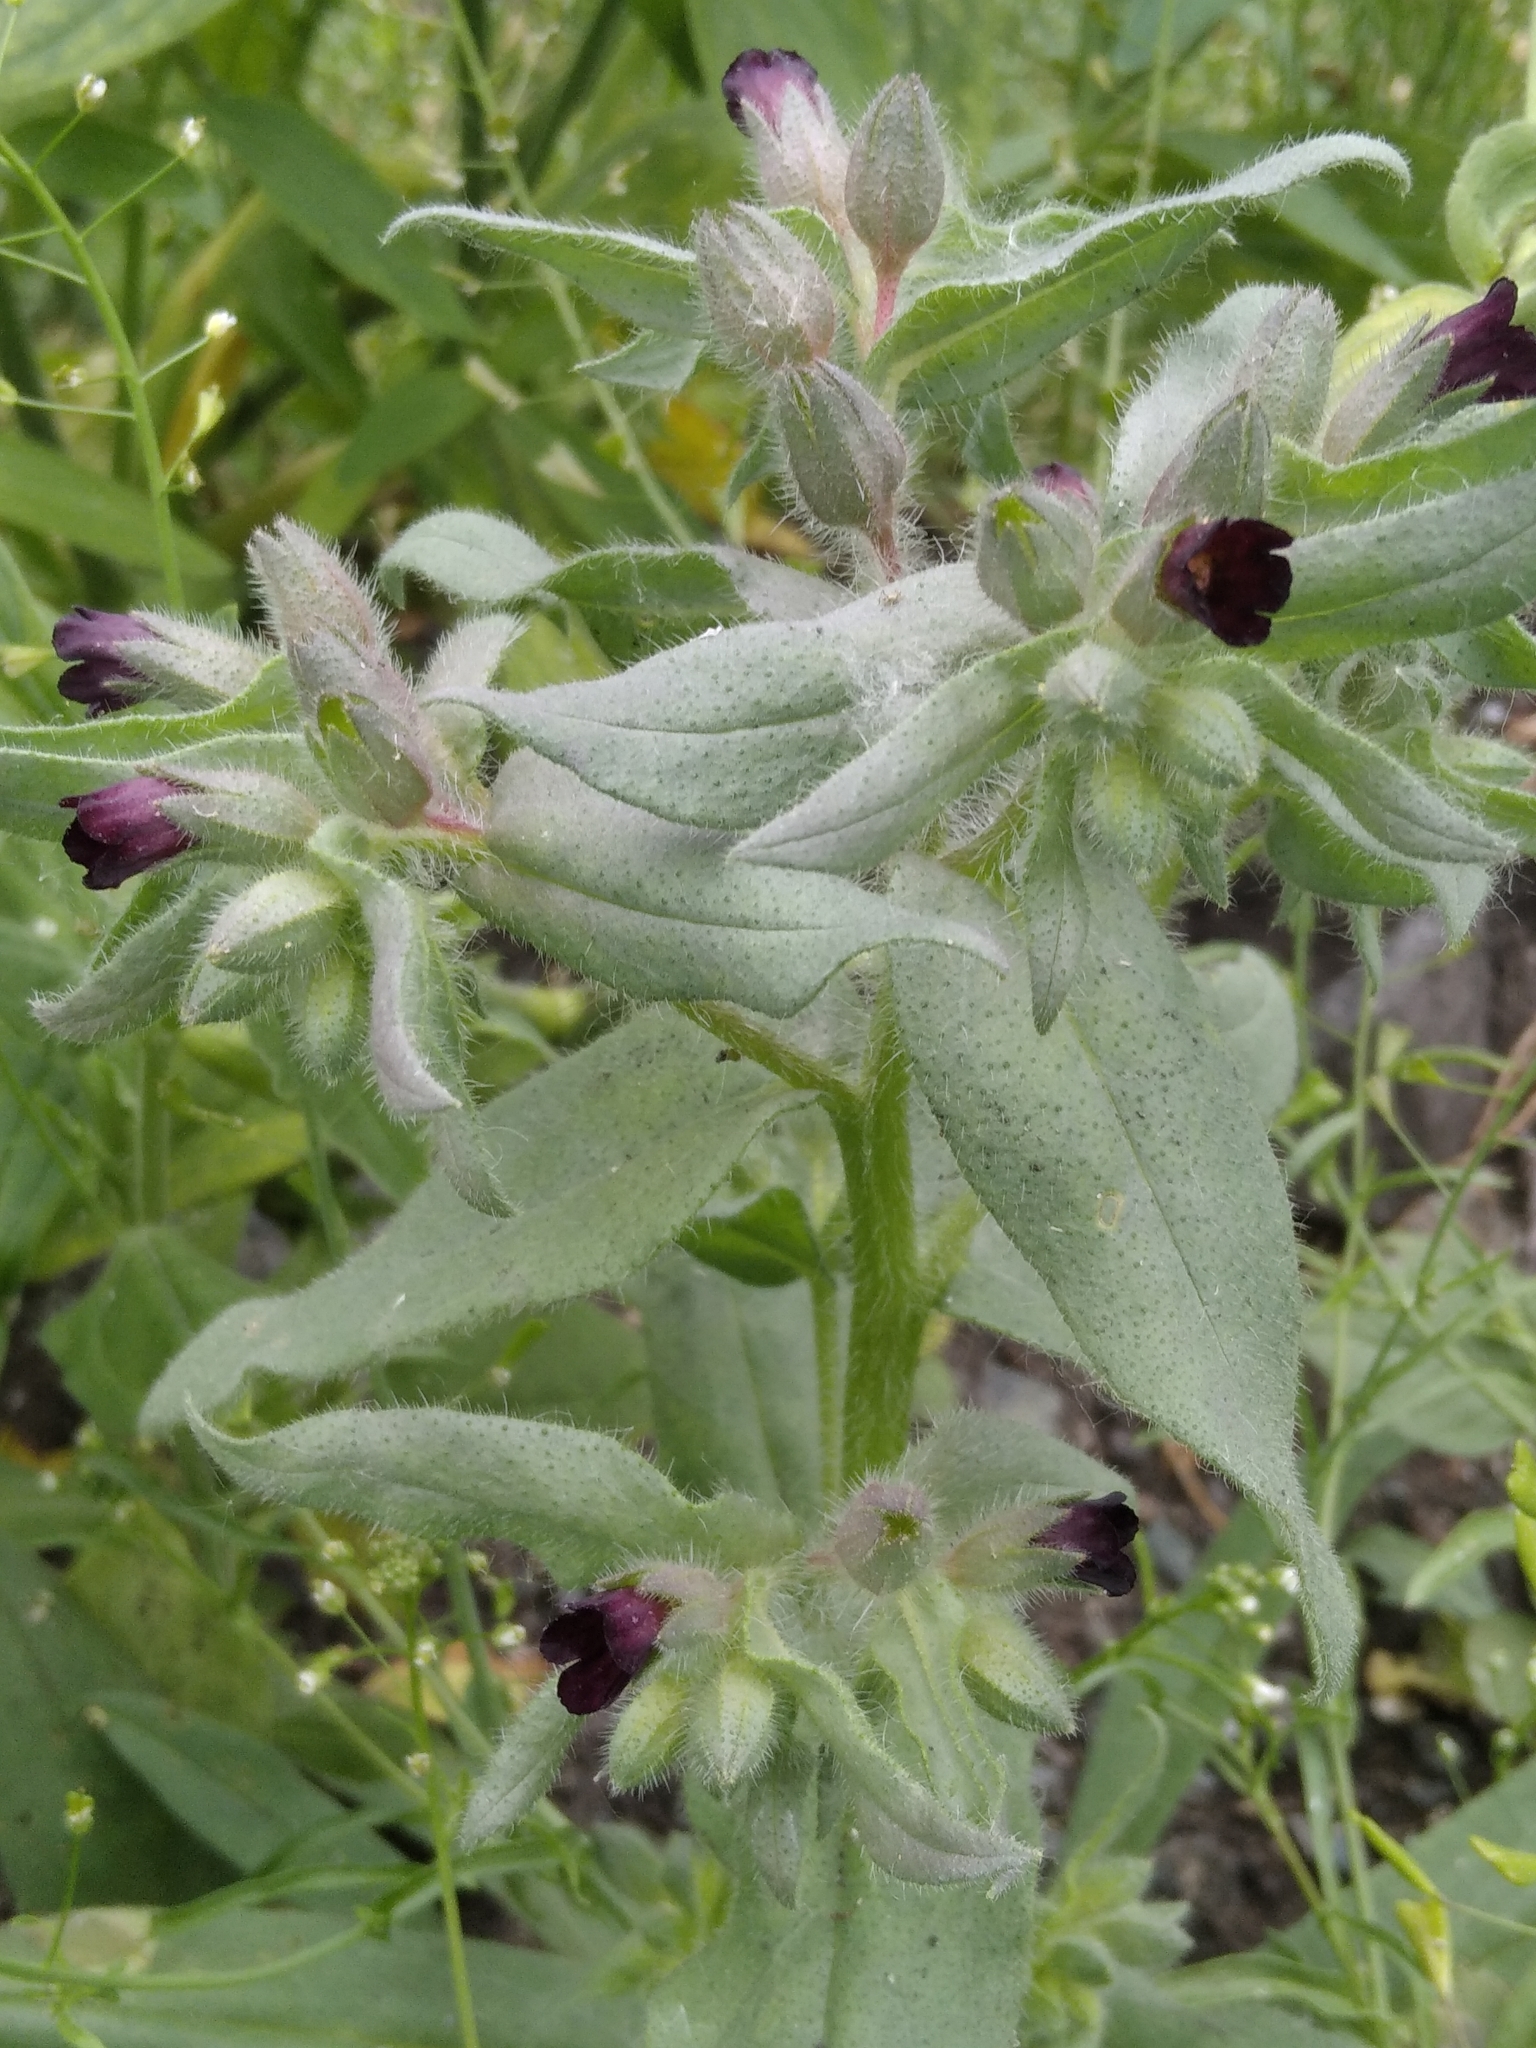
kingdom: Plantae
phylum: Tracheophyta
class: Magnoliopsida
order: Boraginales
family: Boraginaceae
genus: Nonea
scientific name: Nonea pulla
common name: Brown nonea
